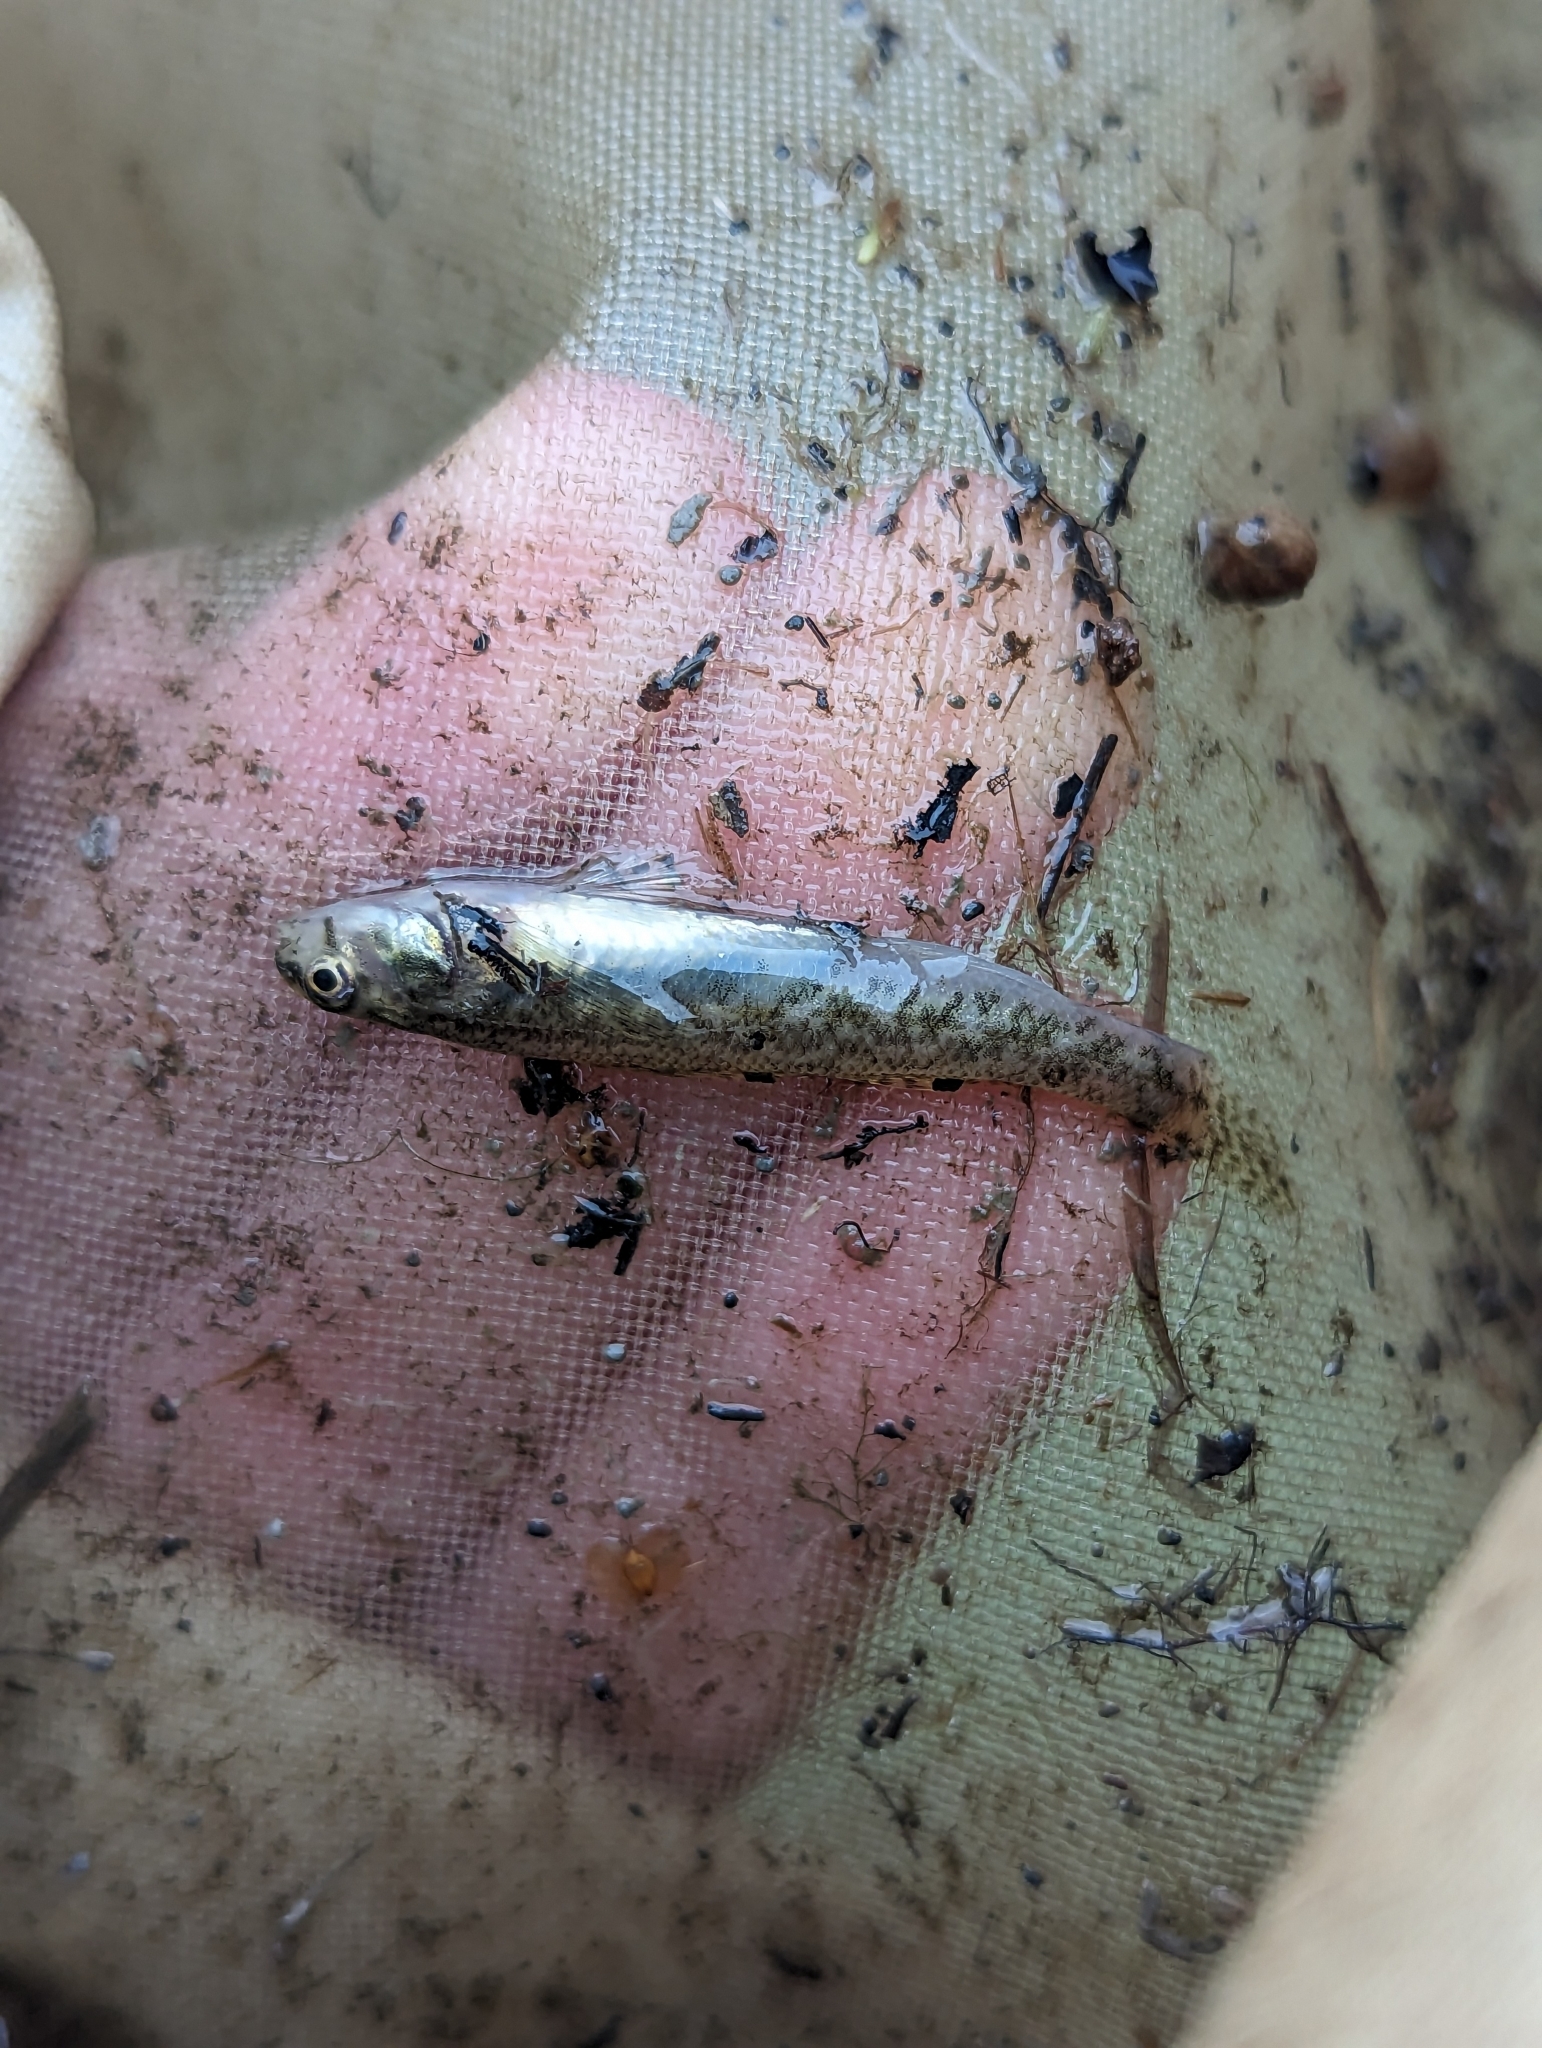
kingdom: Animalia
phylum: Chordata
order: Perciformes
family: Percidae
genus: Etheostoma
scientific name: Etheostoma nigrum
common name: Johnny darter
